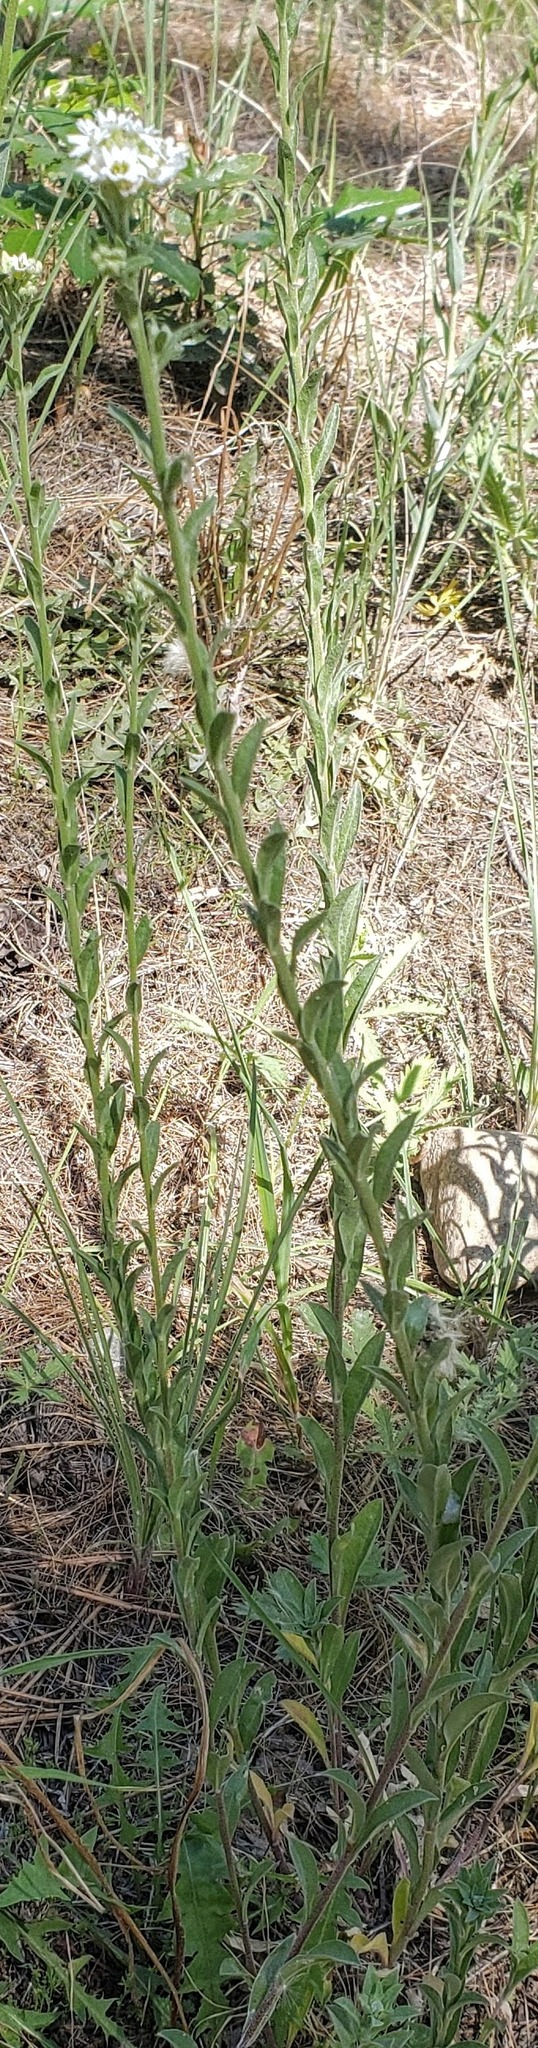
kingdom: Plantae
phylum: Tracheophyta
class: Magnoliopsida
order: Brassicales
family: Brassicaceae
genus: Berteroa
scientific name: Berteroa incana
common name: Hoary alison
